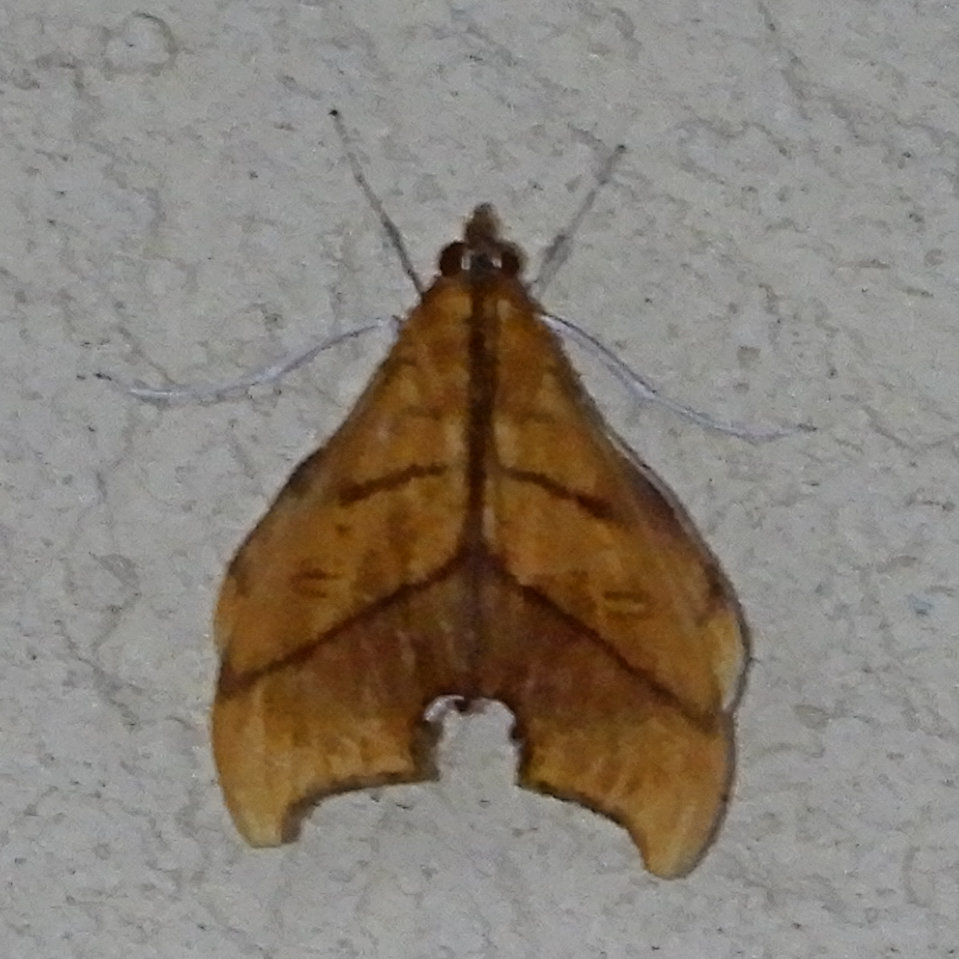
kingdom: Animalia
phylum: Arthropoda
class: Insecta
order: Lepidoptera
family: Crambidae
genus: Sparagmia
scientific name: Sparagmia gonoptera
